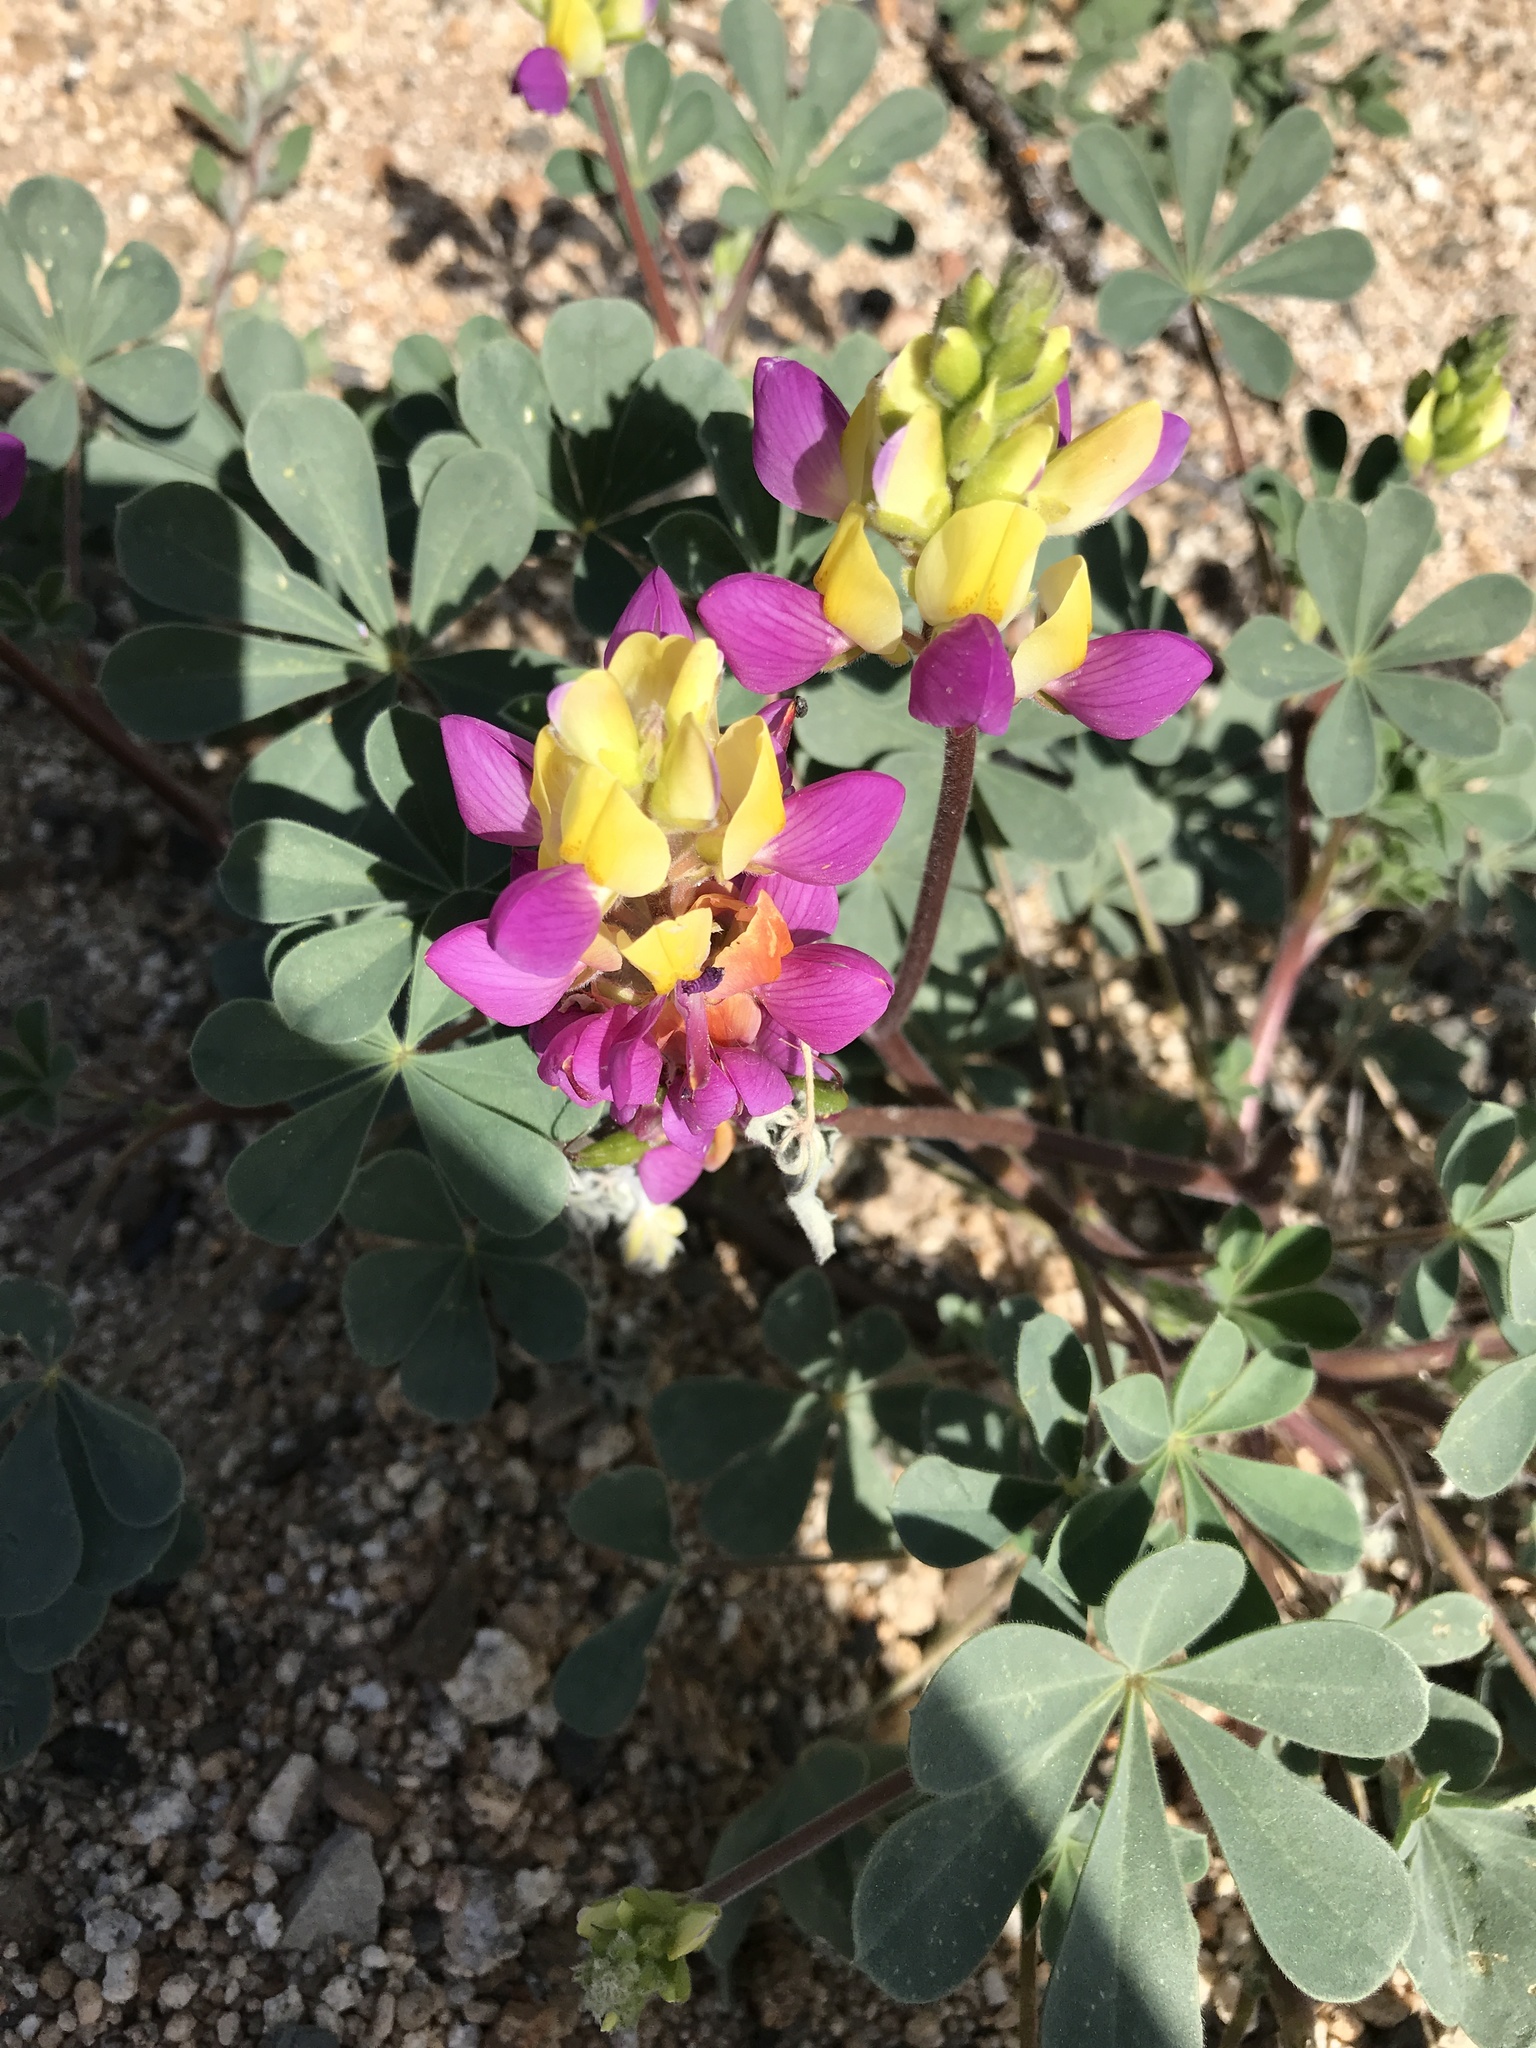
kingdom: Plantae
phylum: Tracheophyta
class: Magnoliopsida
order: Fabales
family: Fabaceae
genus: Lupinus
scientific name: Lupinus stiversii
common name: Harlequin lupine
